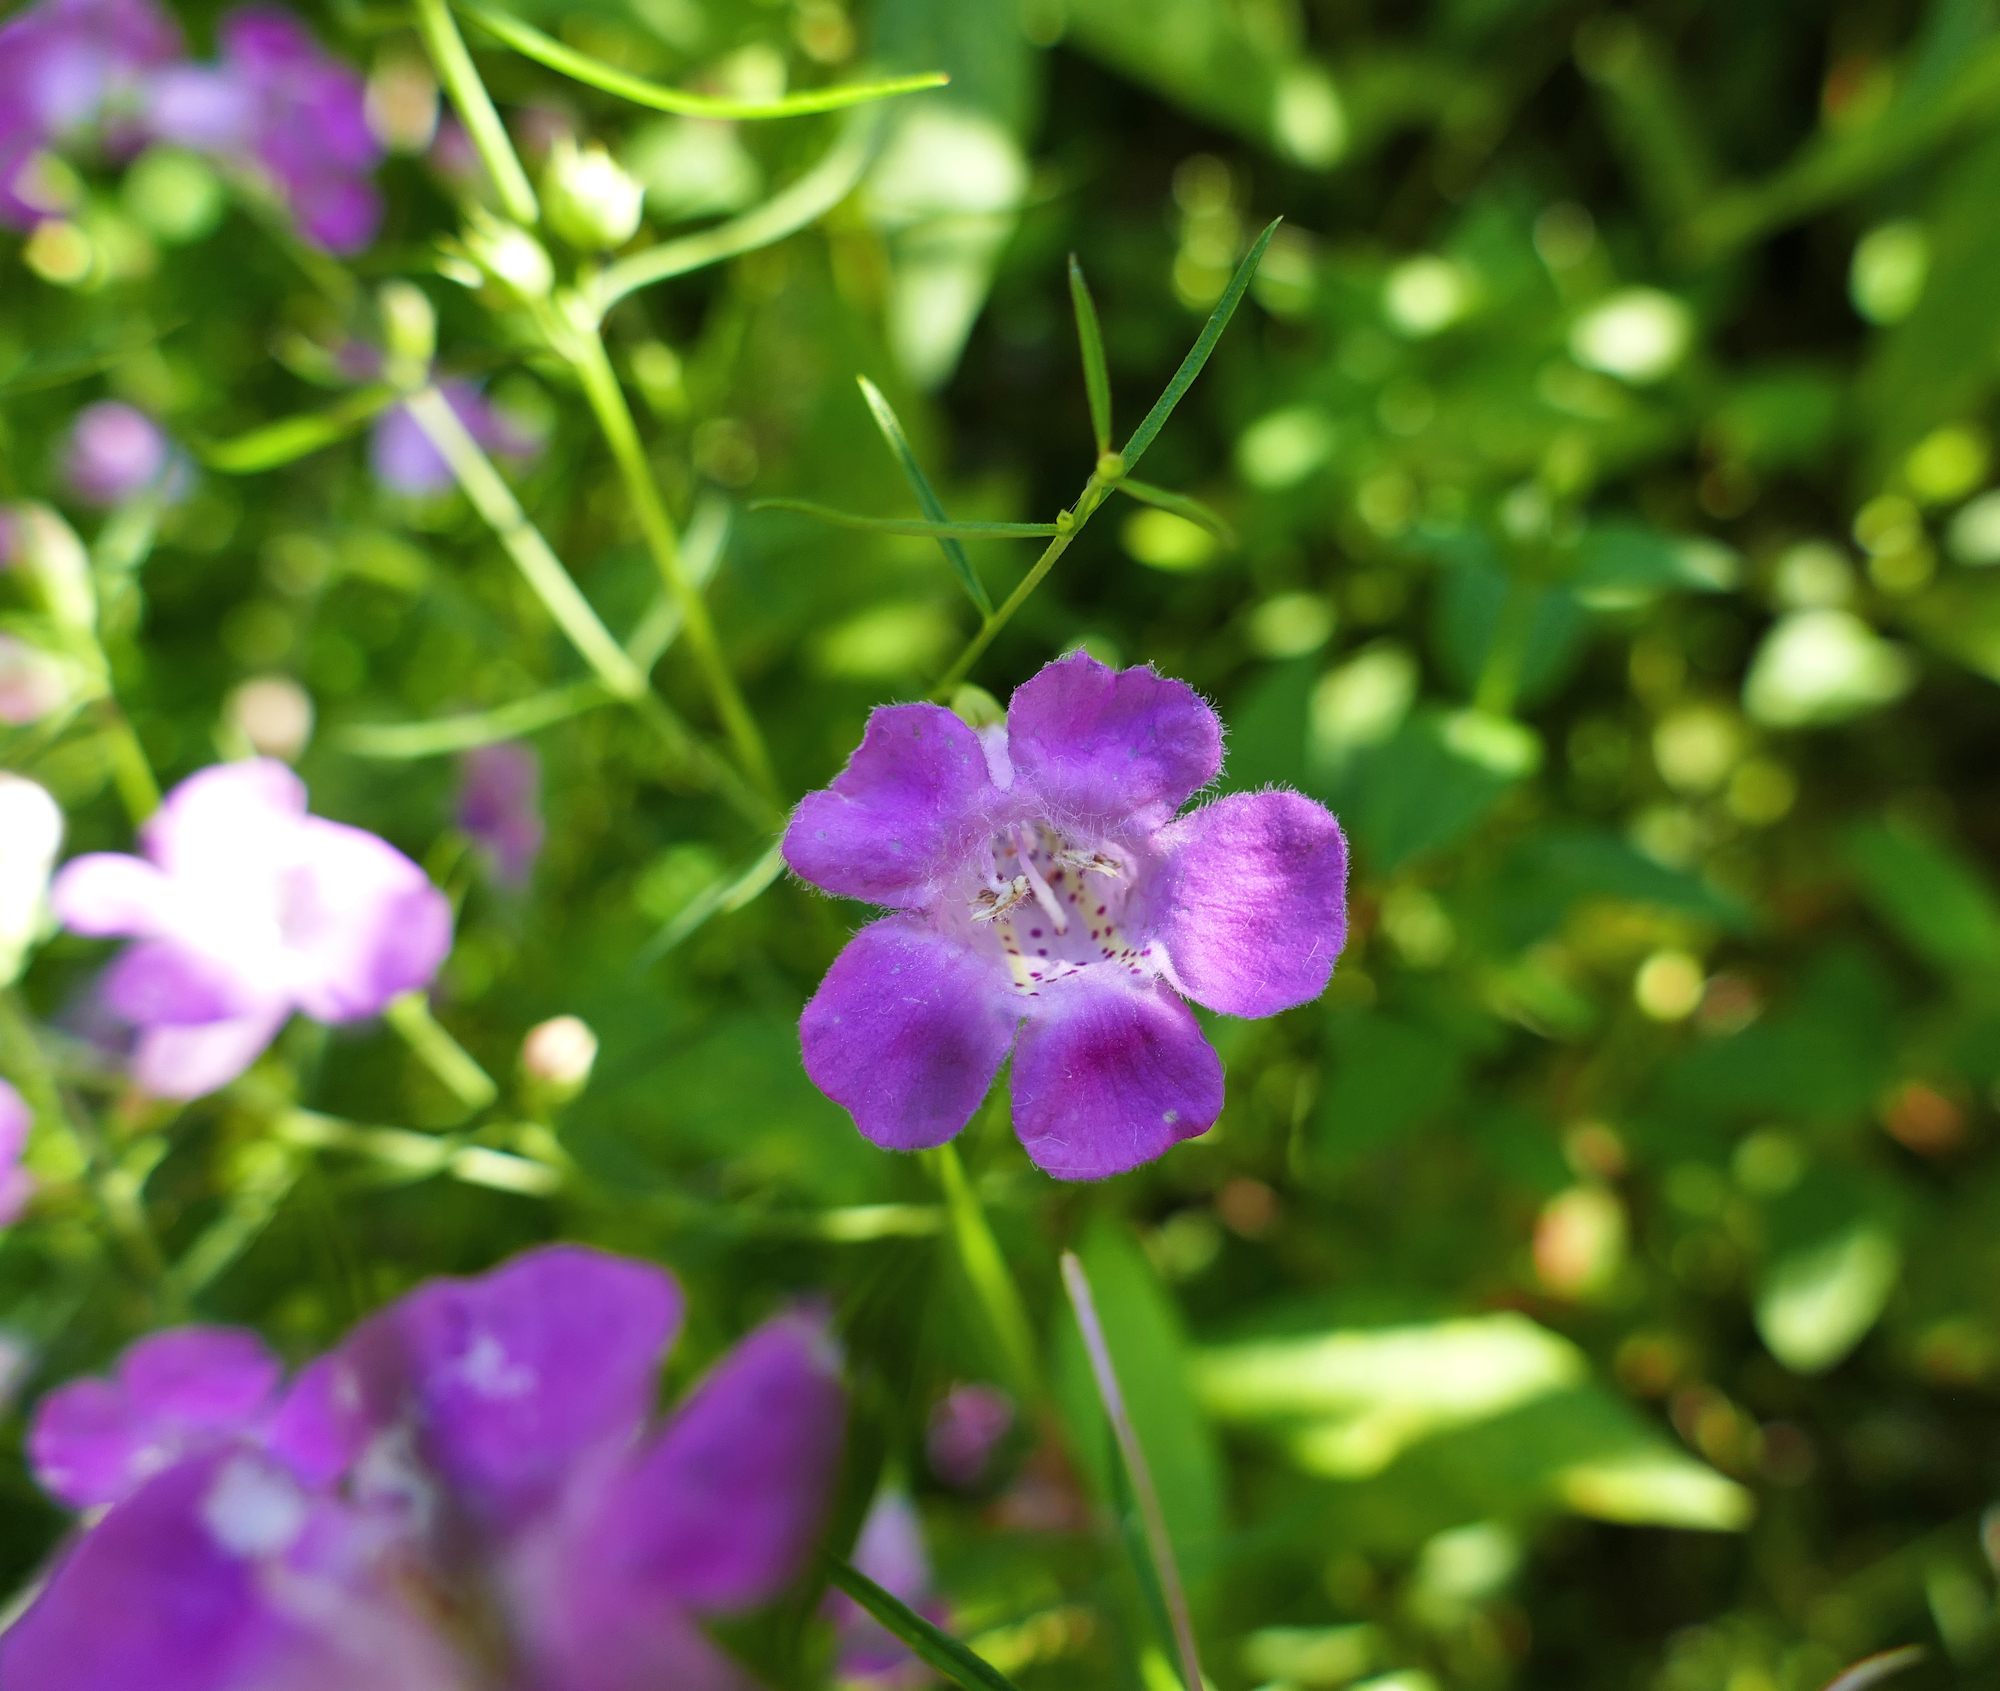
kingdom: Plantae
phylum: Tracheophyta
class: Magnoliopsida
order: Lamiales
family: Orobanchaceae
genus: Agalinis
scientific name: Agalinis purpurea
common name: Purple false foxglove
